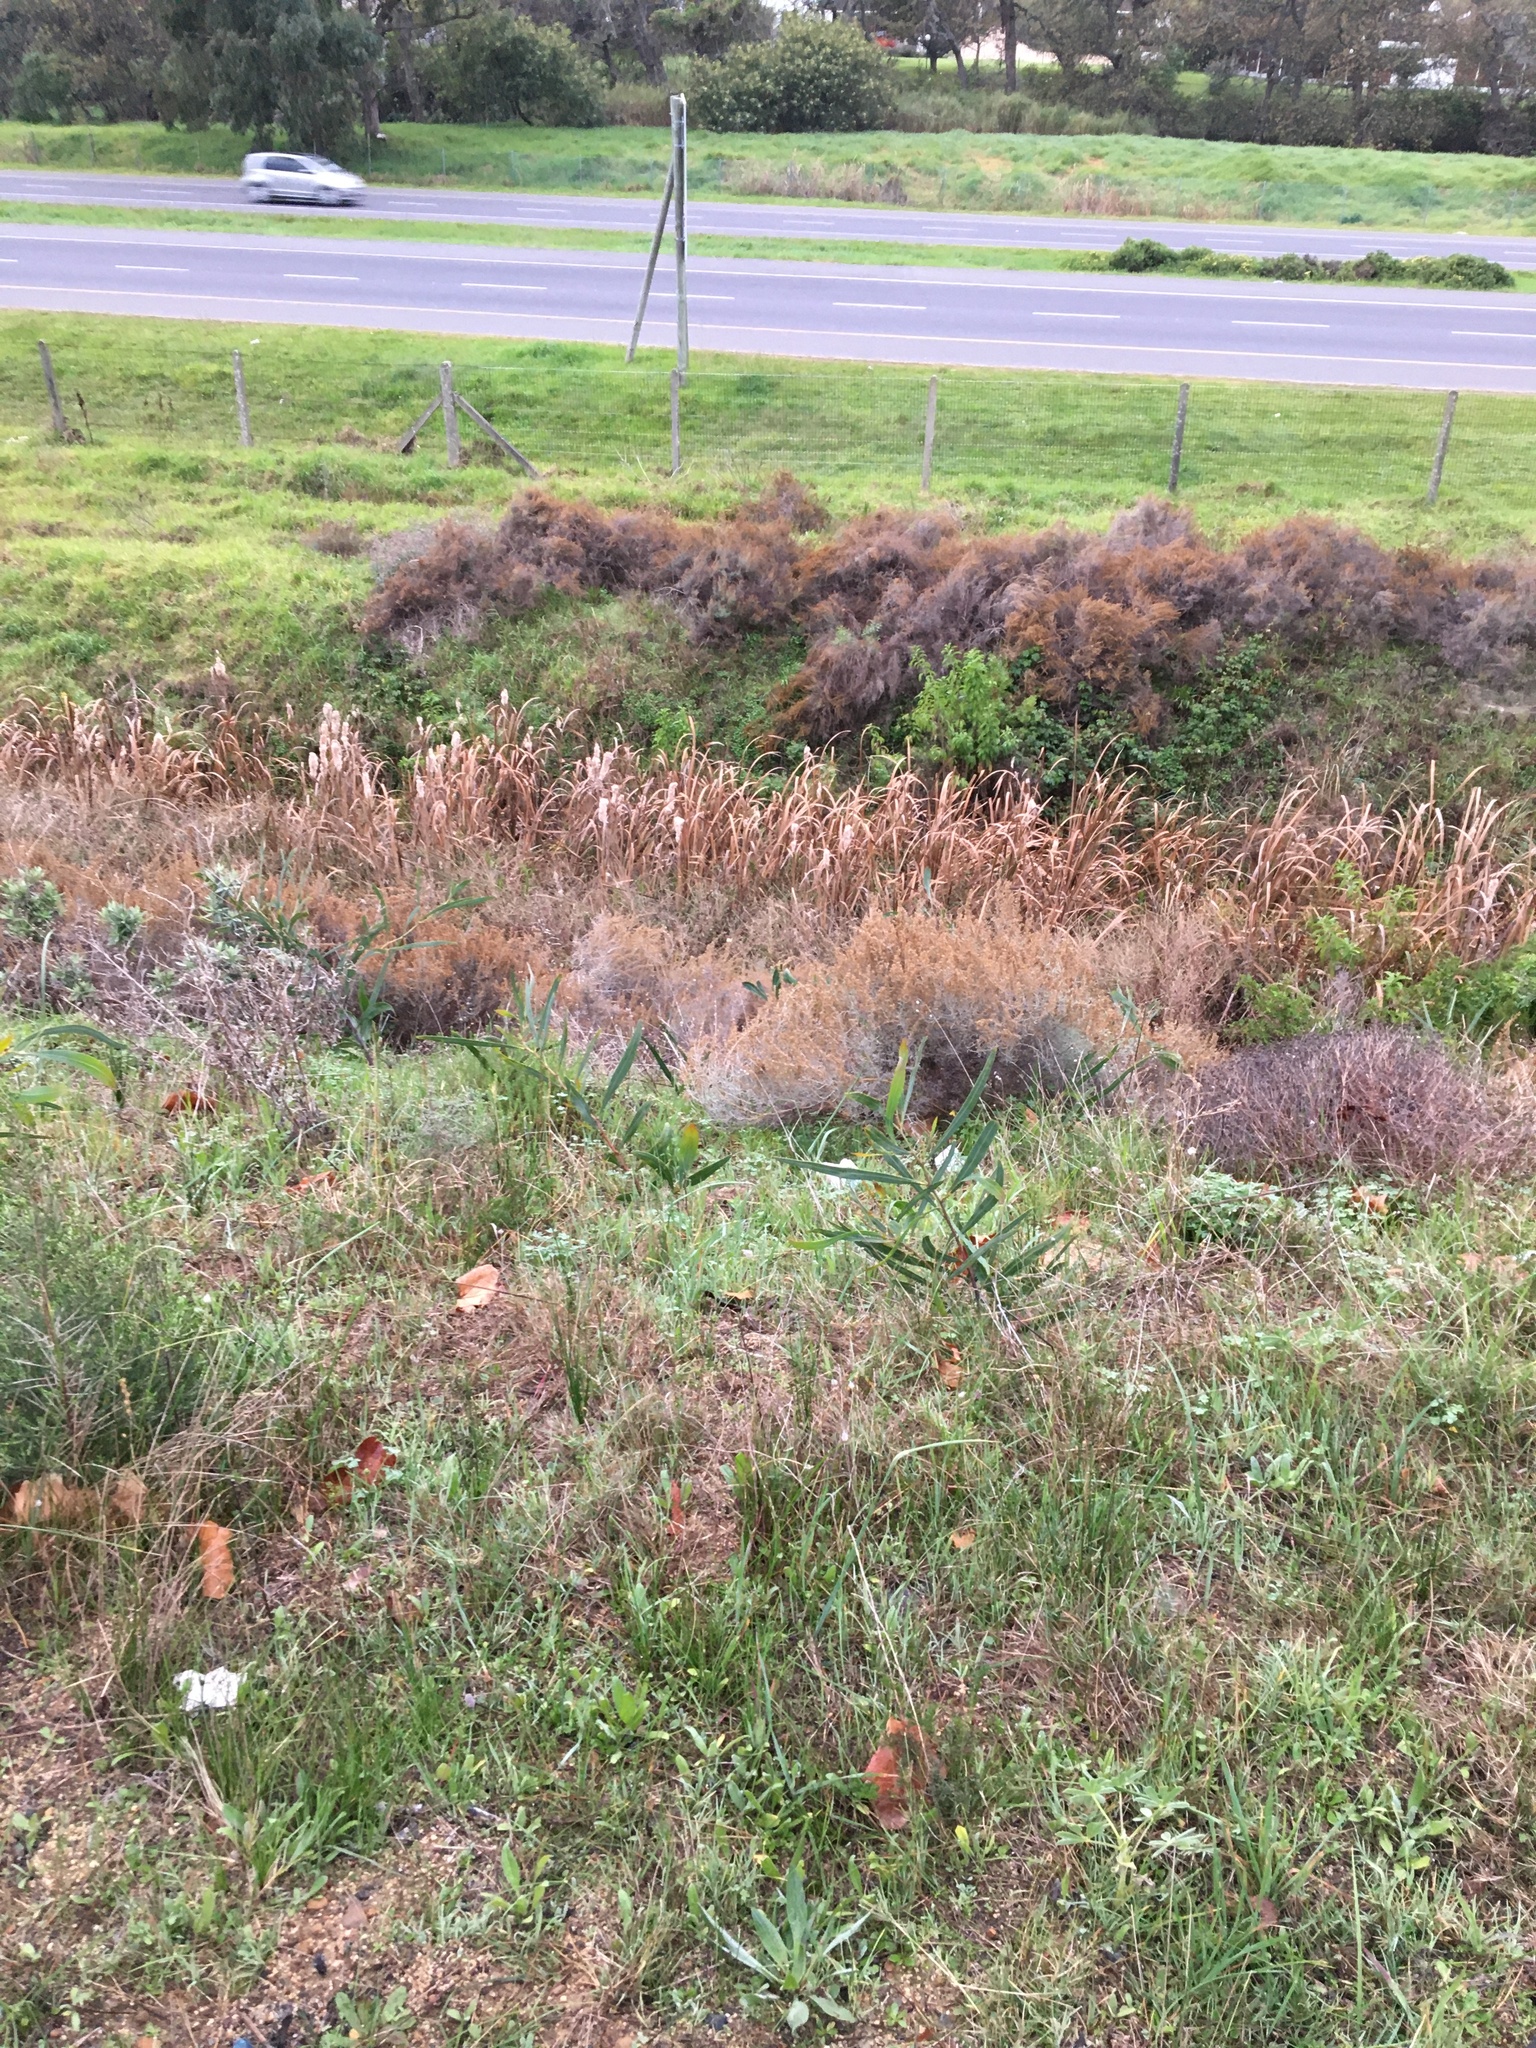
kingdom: Plantae
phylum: Tracheophyta
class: Magnoliopsida
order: Fabales
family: Fabaceae
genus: Acacia
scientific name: Acacia saligna
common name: Orange wattle
